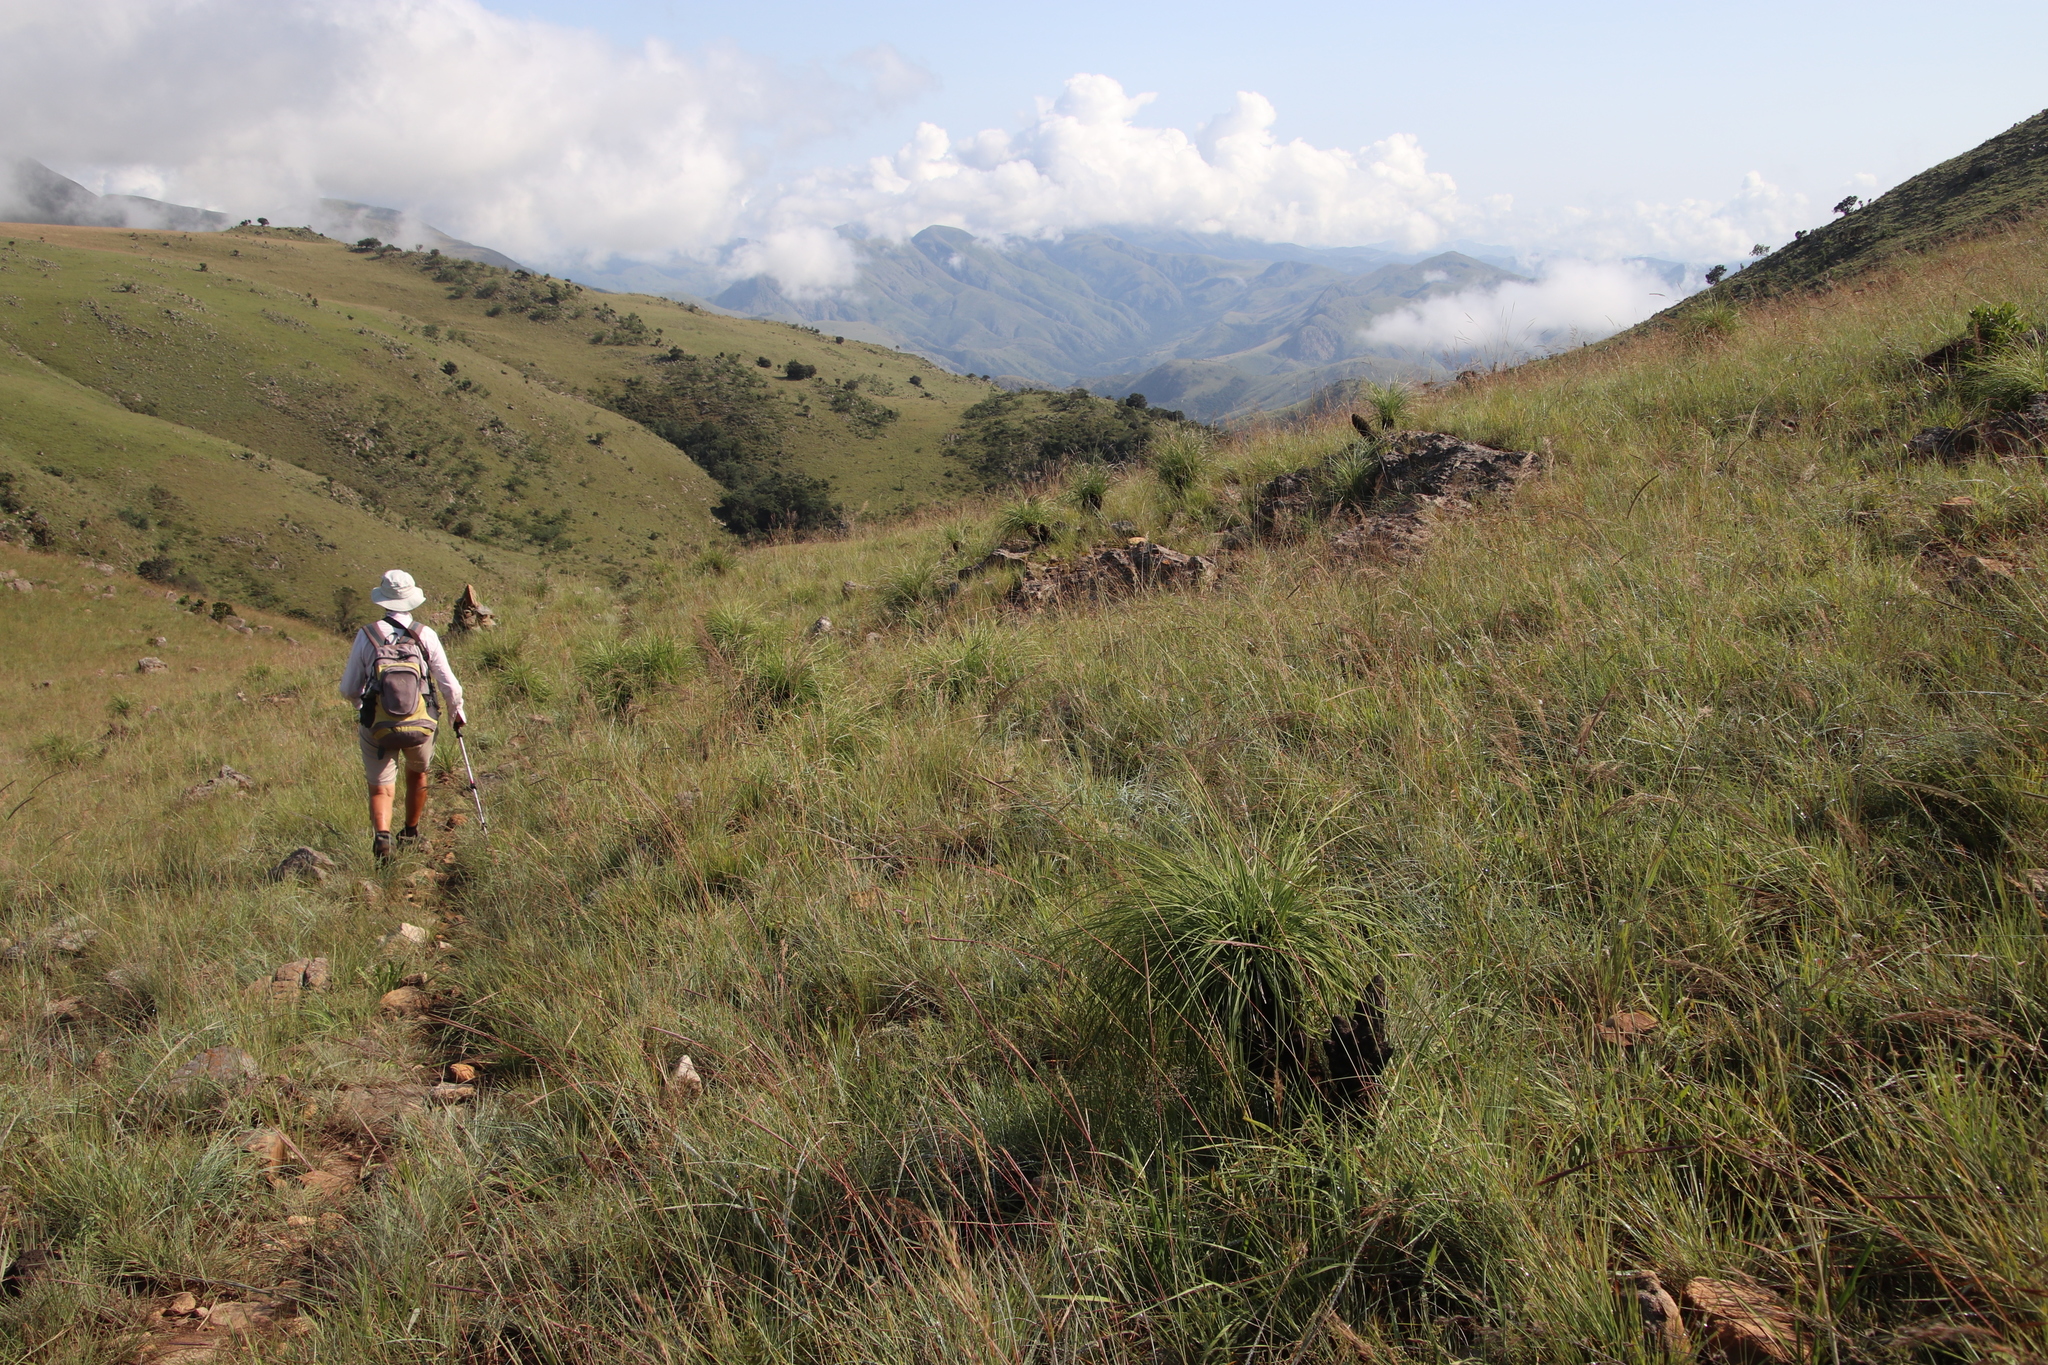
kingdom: Plantae
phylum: Tracheophyta
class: Liliopsida
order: Pandanales
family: Velloziaceae
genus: Xerophyta
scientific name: Xerophyta retinervis
